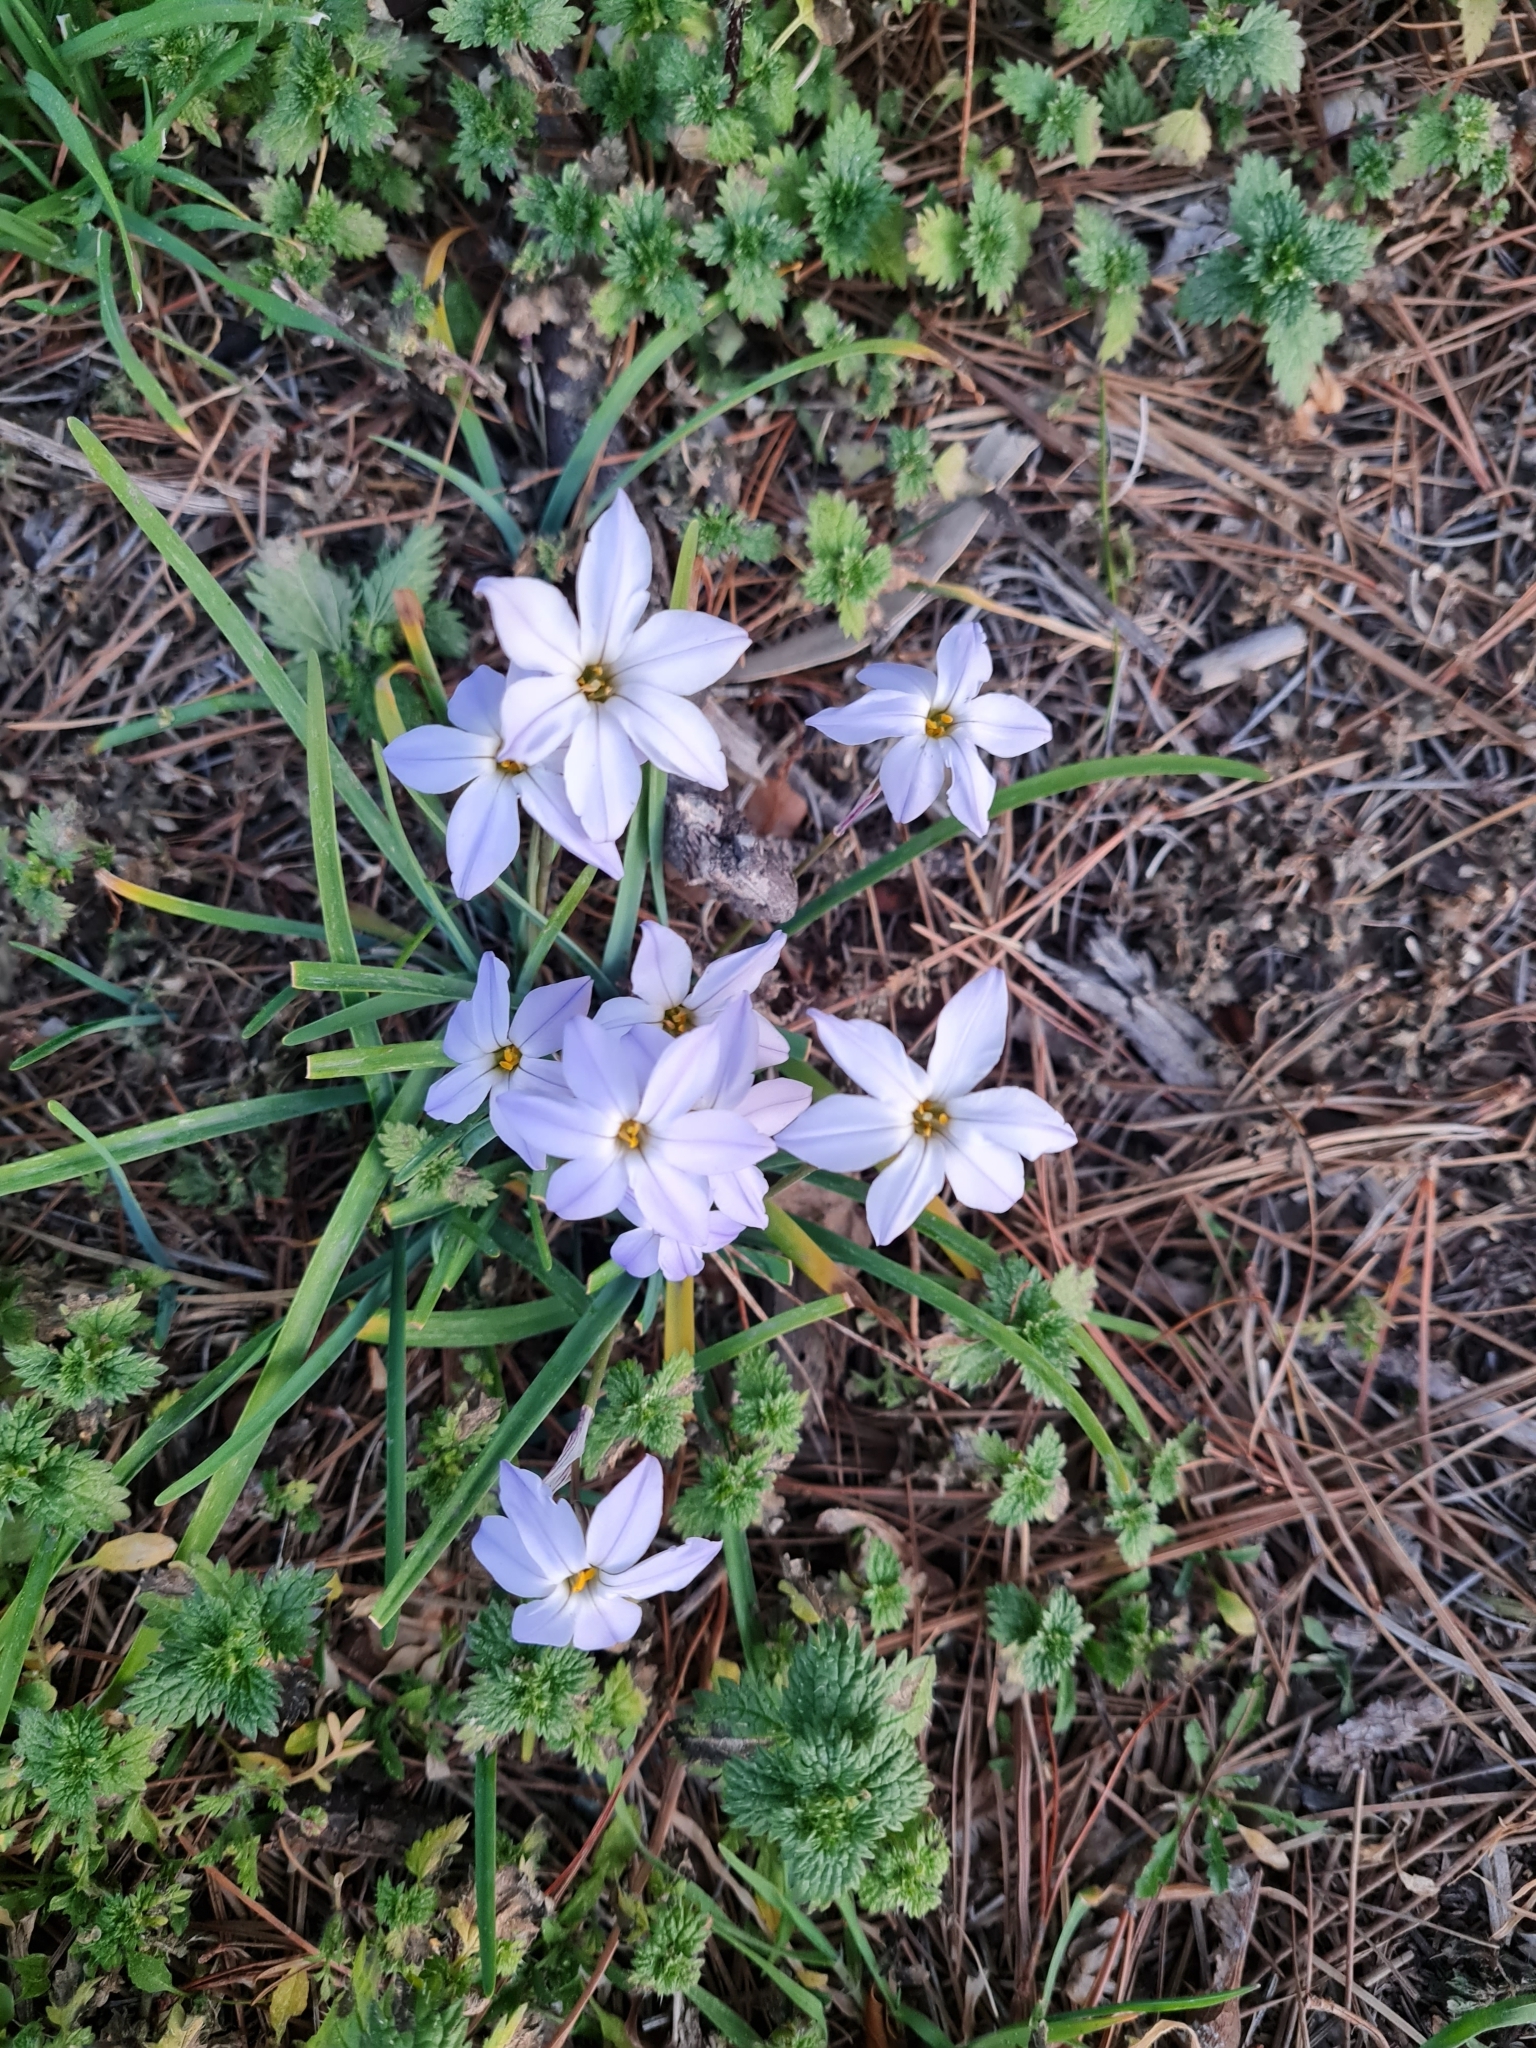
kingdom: Plantae
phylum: Tracheophyta
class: Liliopsida
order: Asparagales
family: Amaryllidaceae
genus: Ipheion
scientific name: Ipheion uniflorum
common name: Spring starflower
